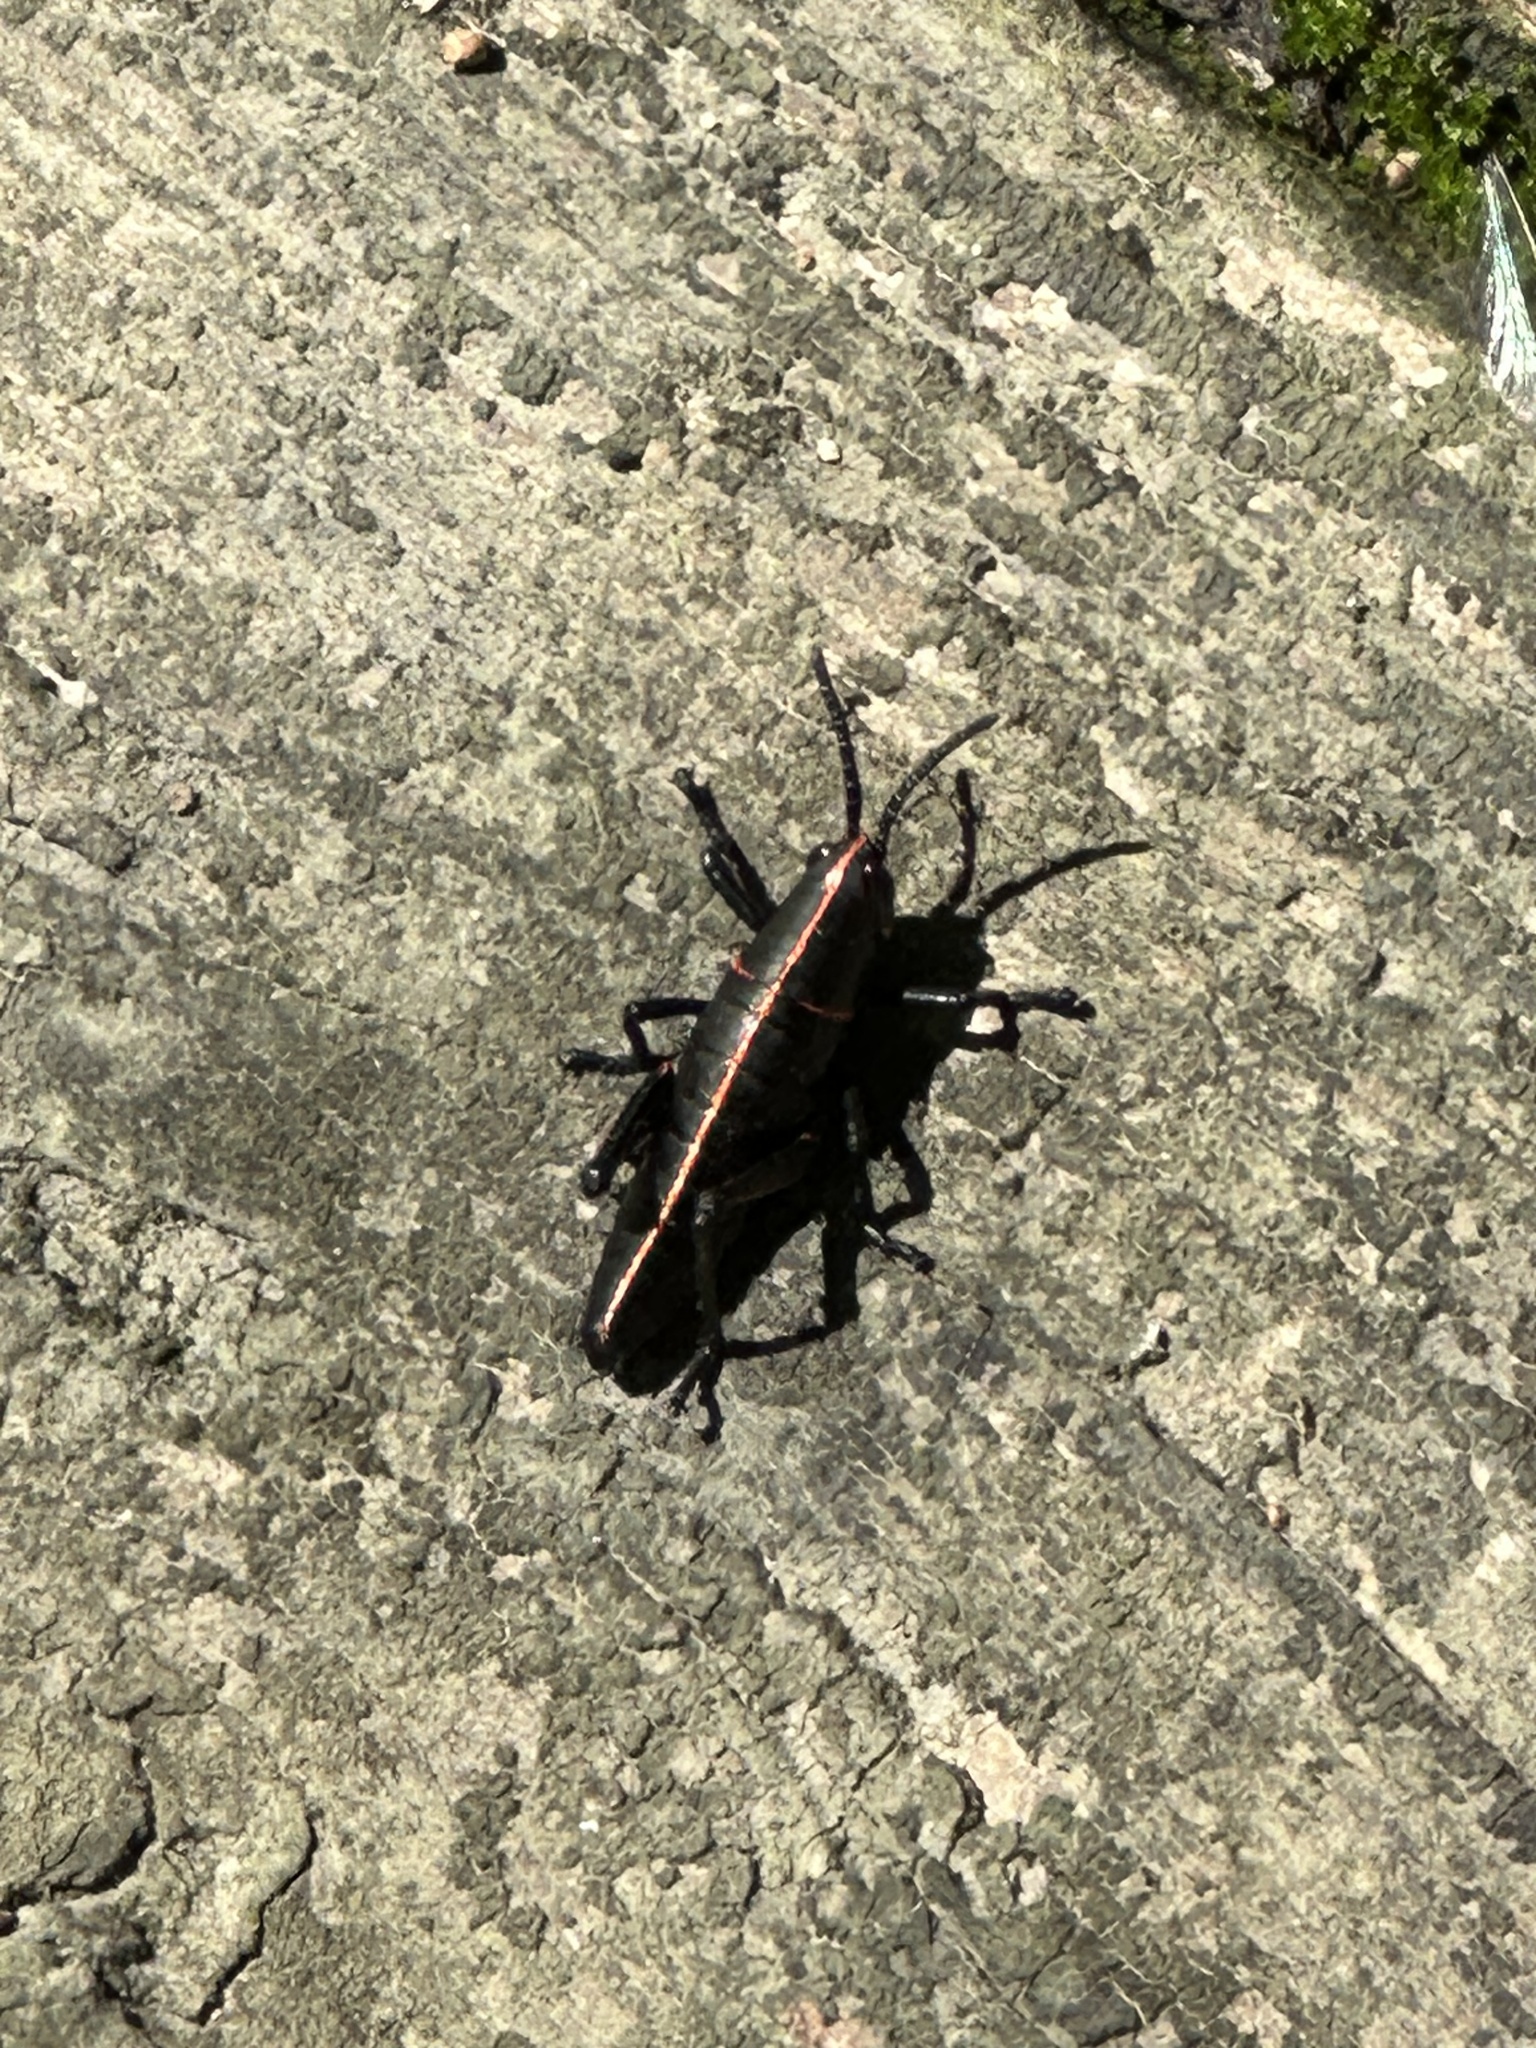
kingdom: Animalia
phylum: Arthropoda
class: Insecta
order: Orthoptera
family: Romaleidae
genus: Romalea
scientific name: Romalea microptera
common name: Eastern lubber grasshopper
